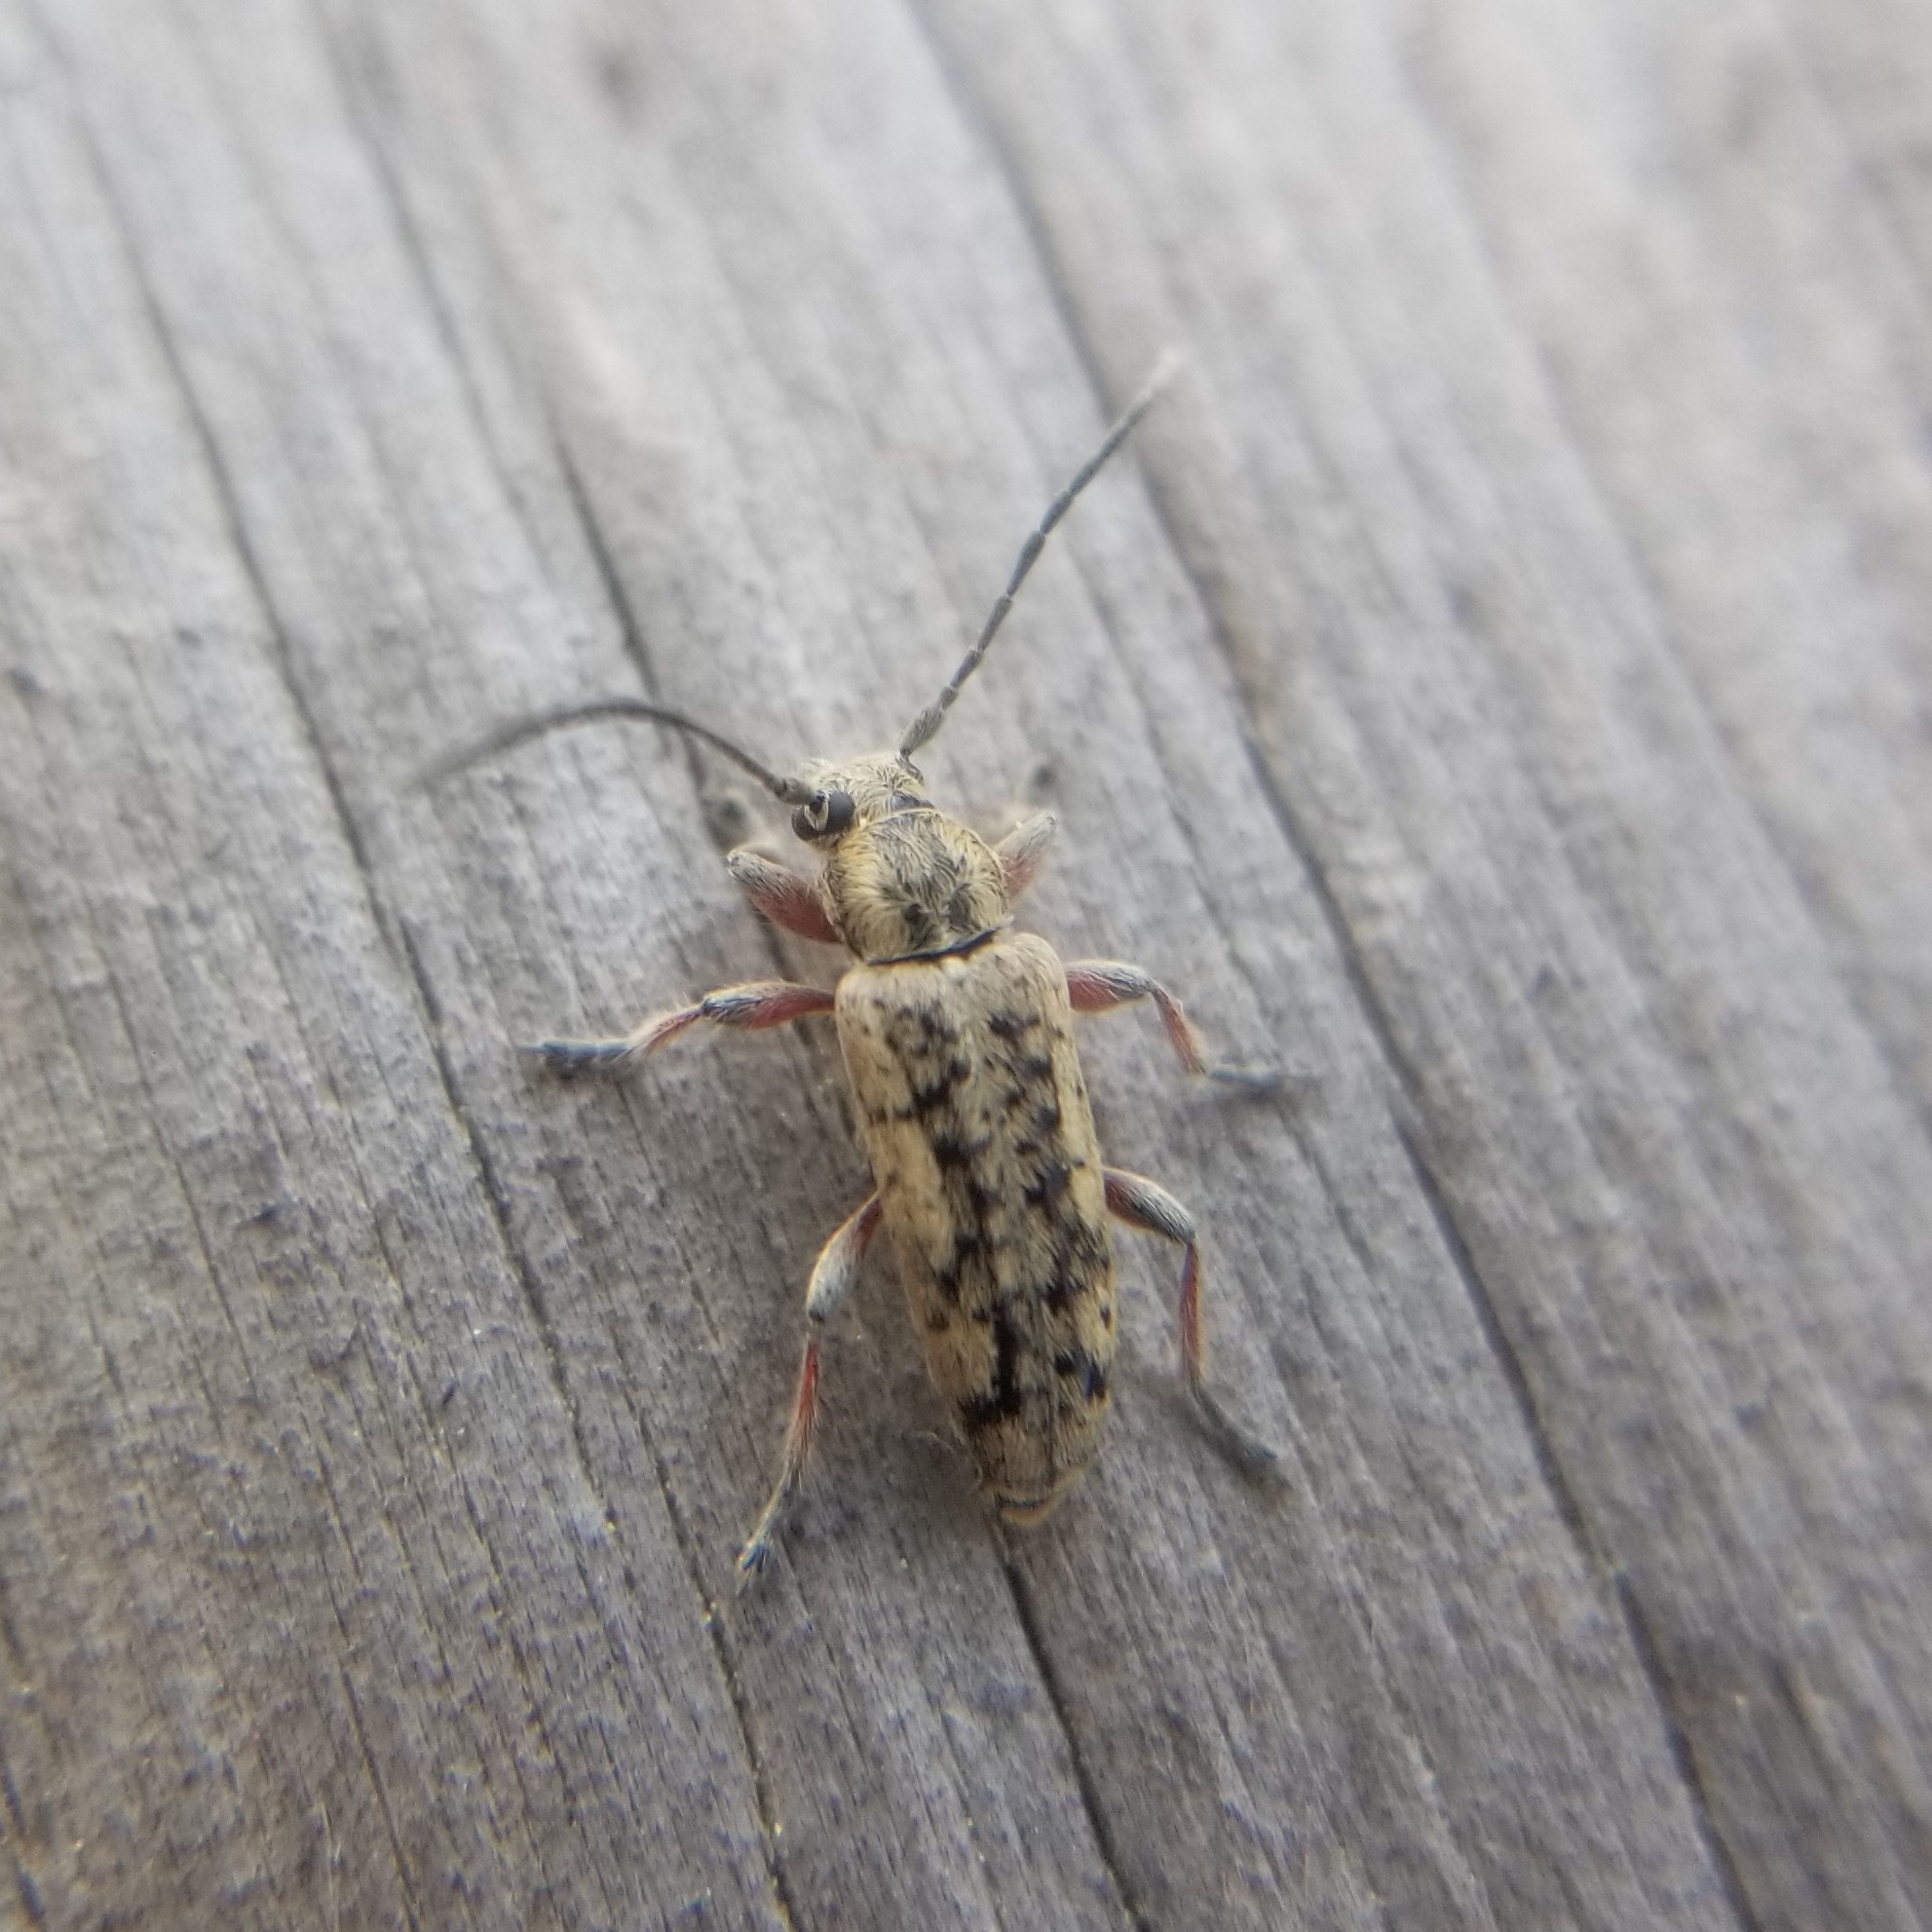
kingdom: Animalia
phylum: Arthropoda
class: Insecta
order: Coleoptera
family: Cerambycidae
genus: Atimia
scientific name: Atimia confusa
